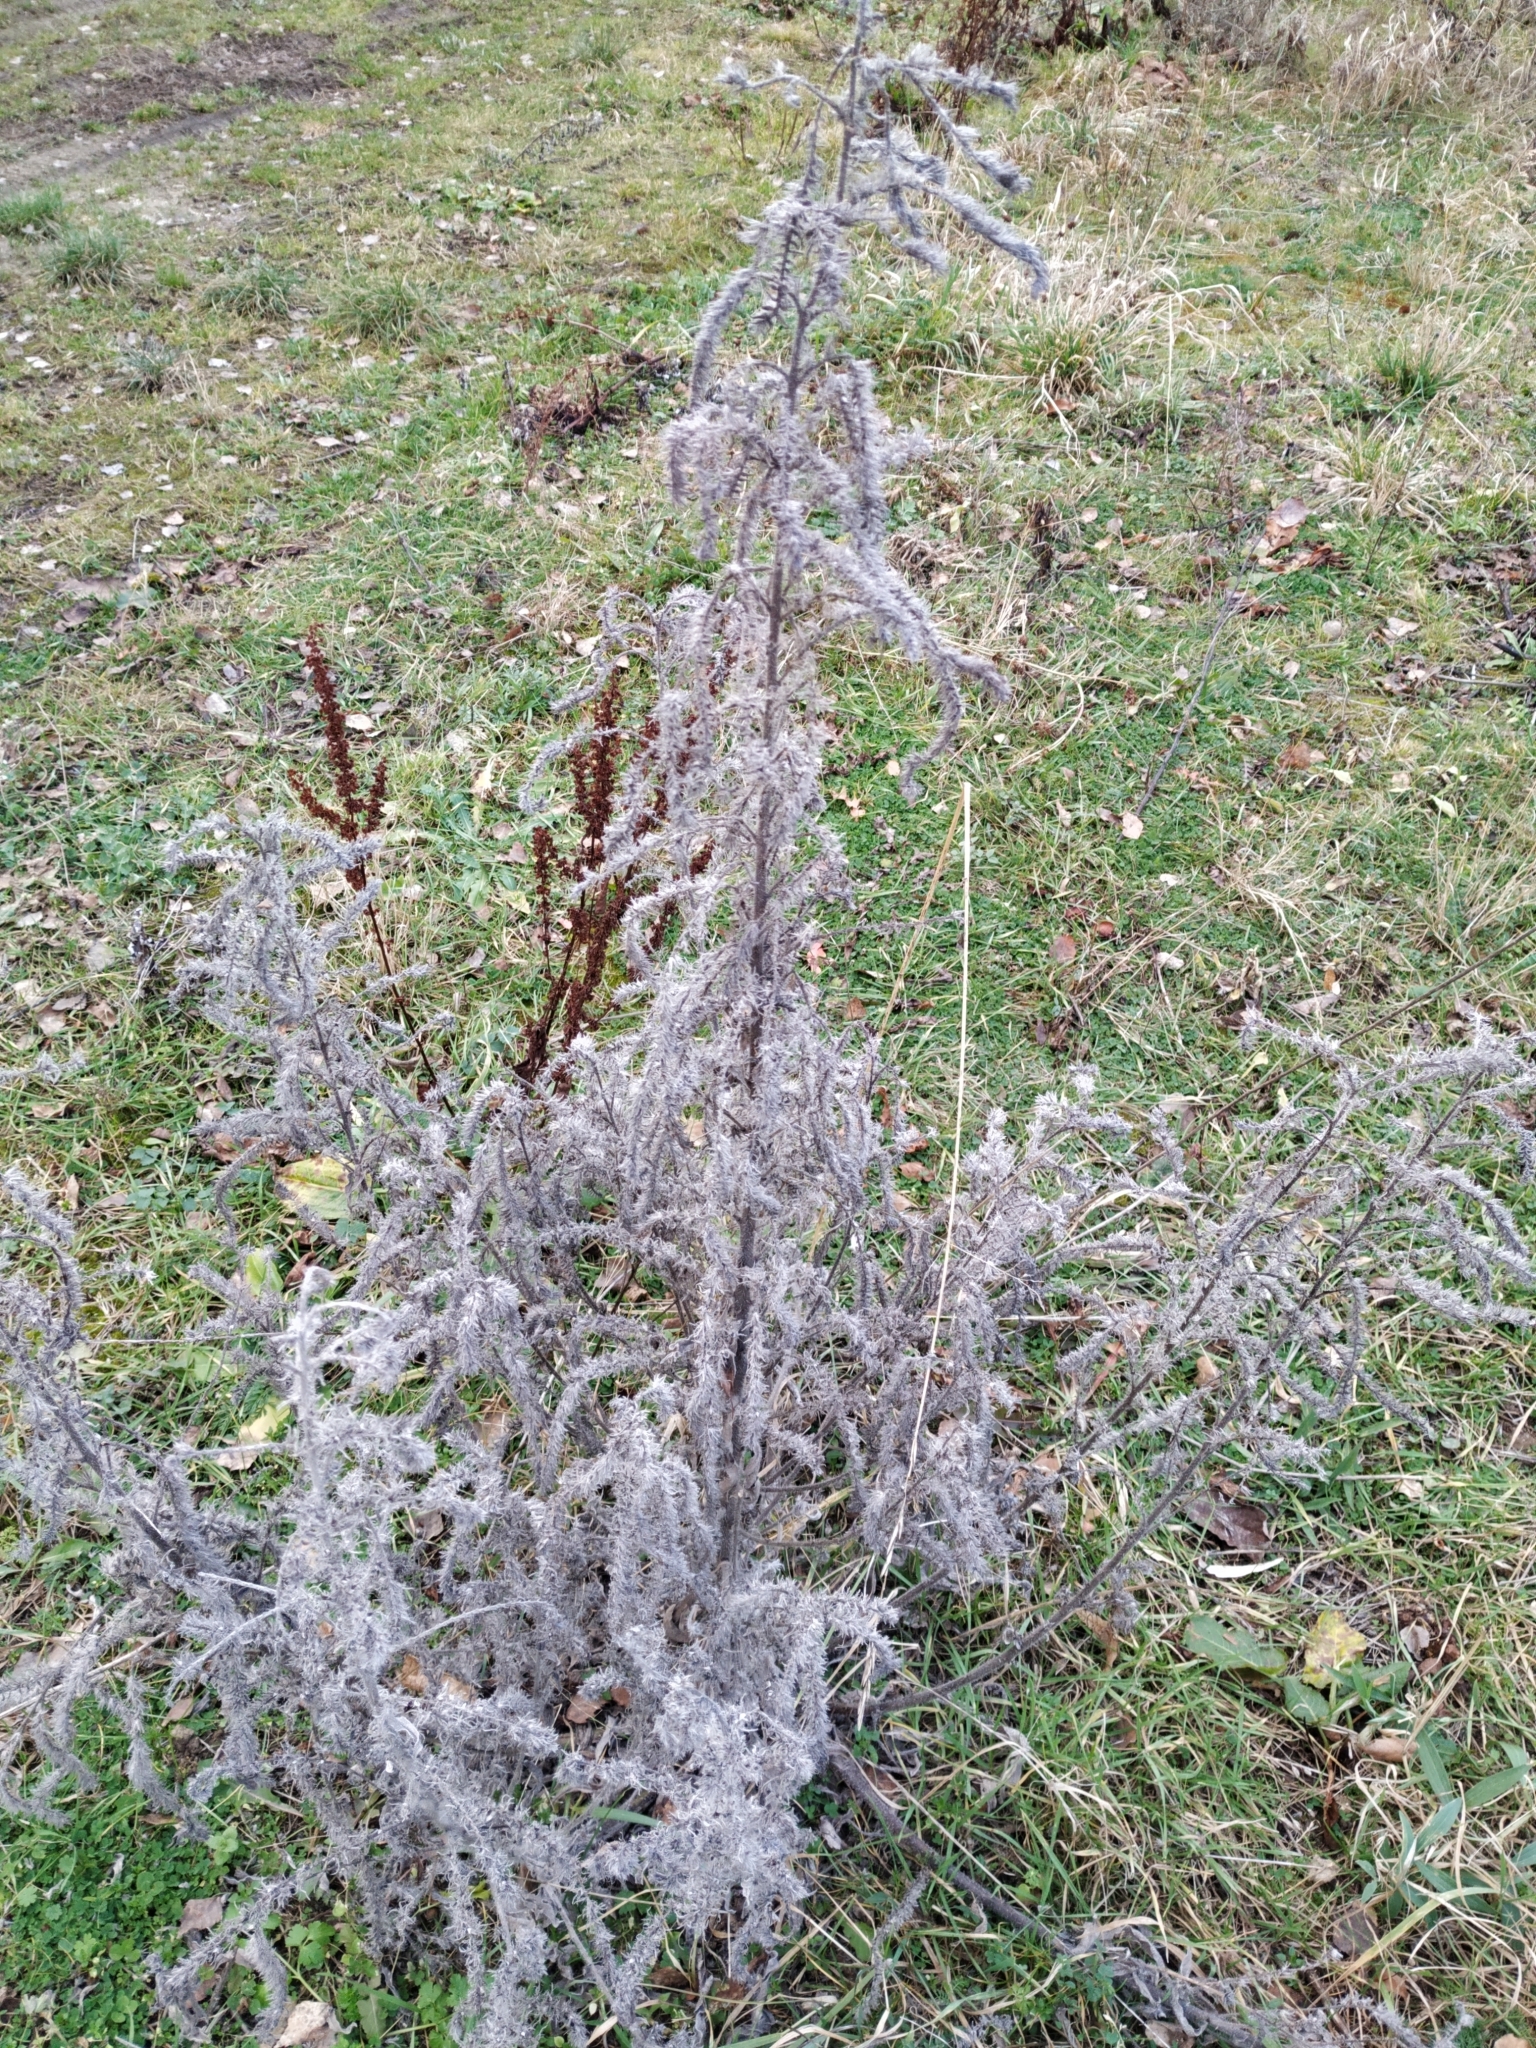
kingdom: Plantae
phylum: Tracheophyta
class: Magnoliopsida
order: Boraginales
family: Boraginaceae
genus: Echium
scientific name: Echium vulgare
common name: Common viper's bugloss
